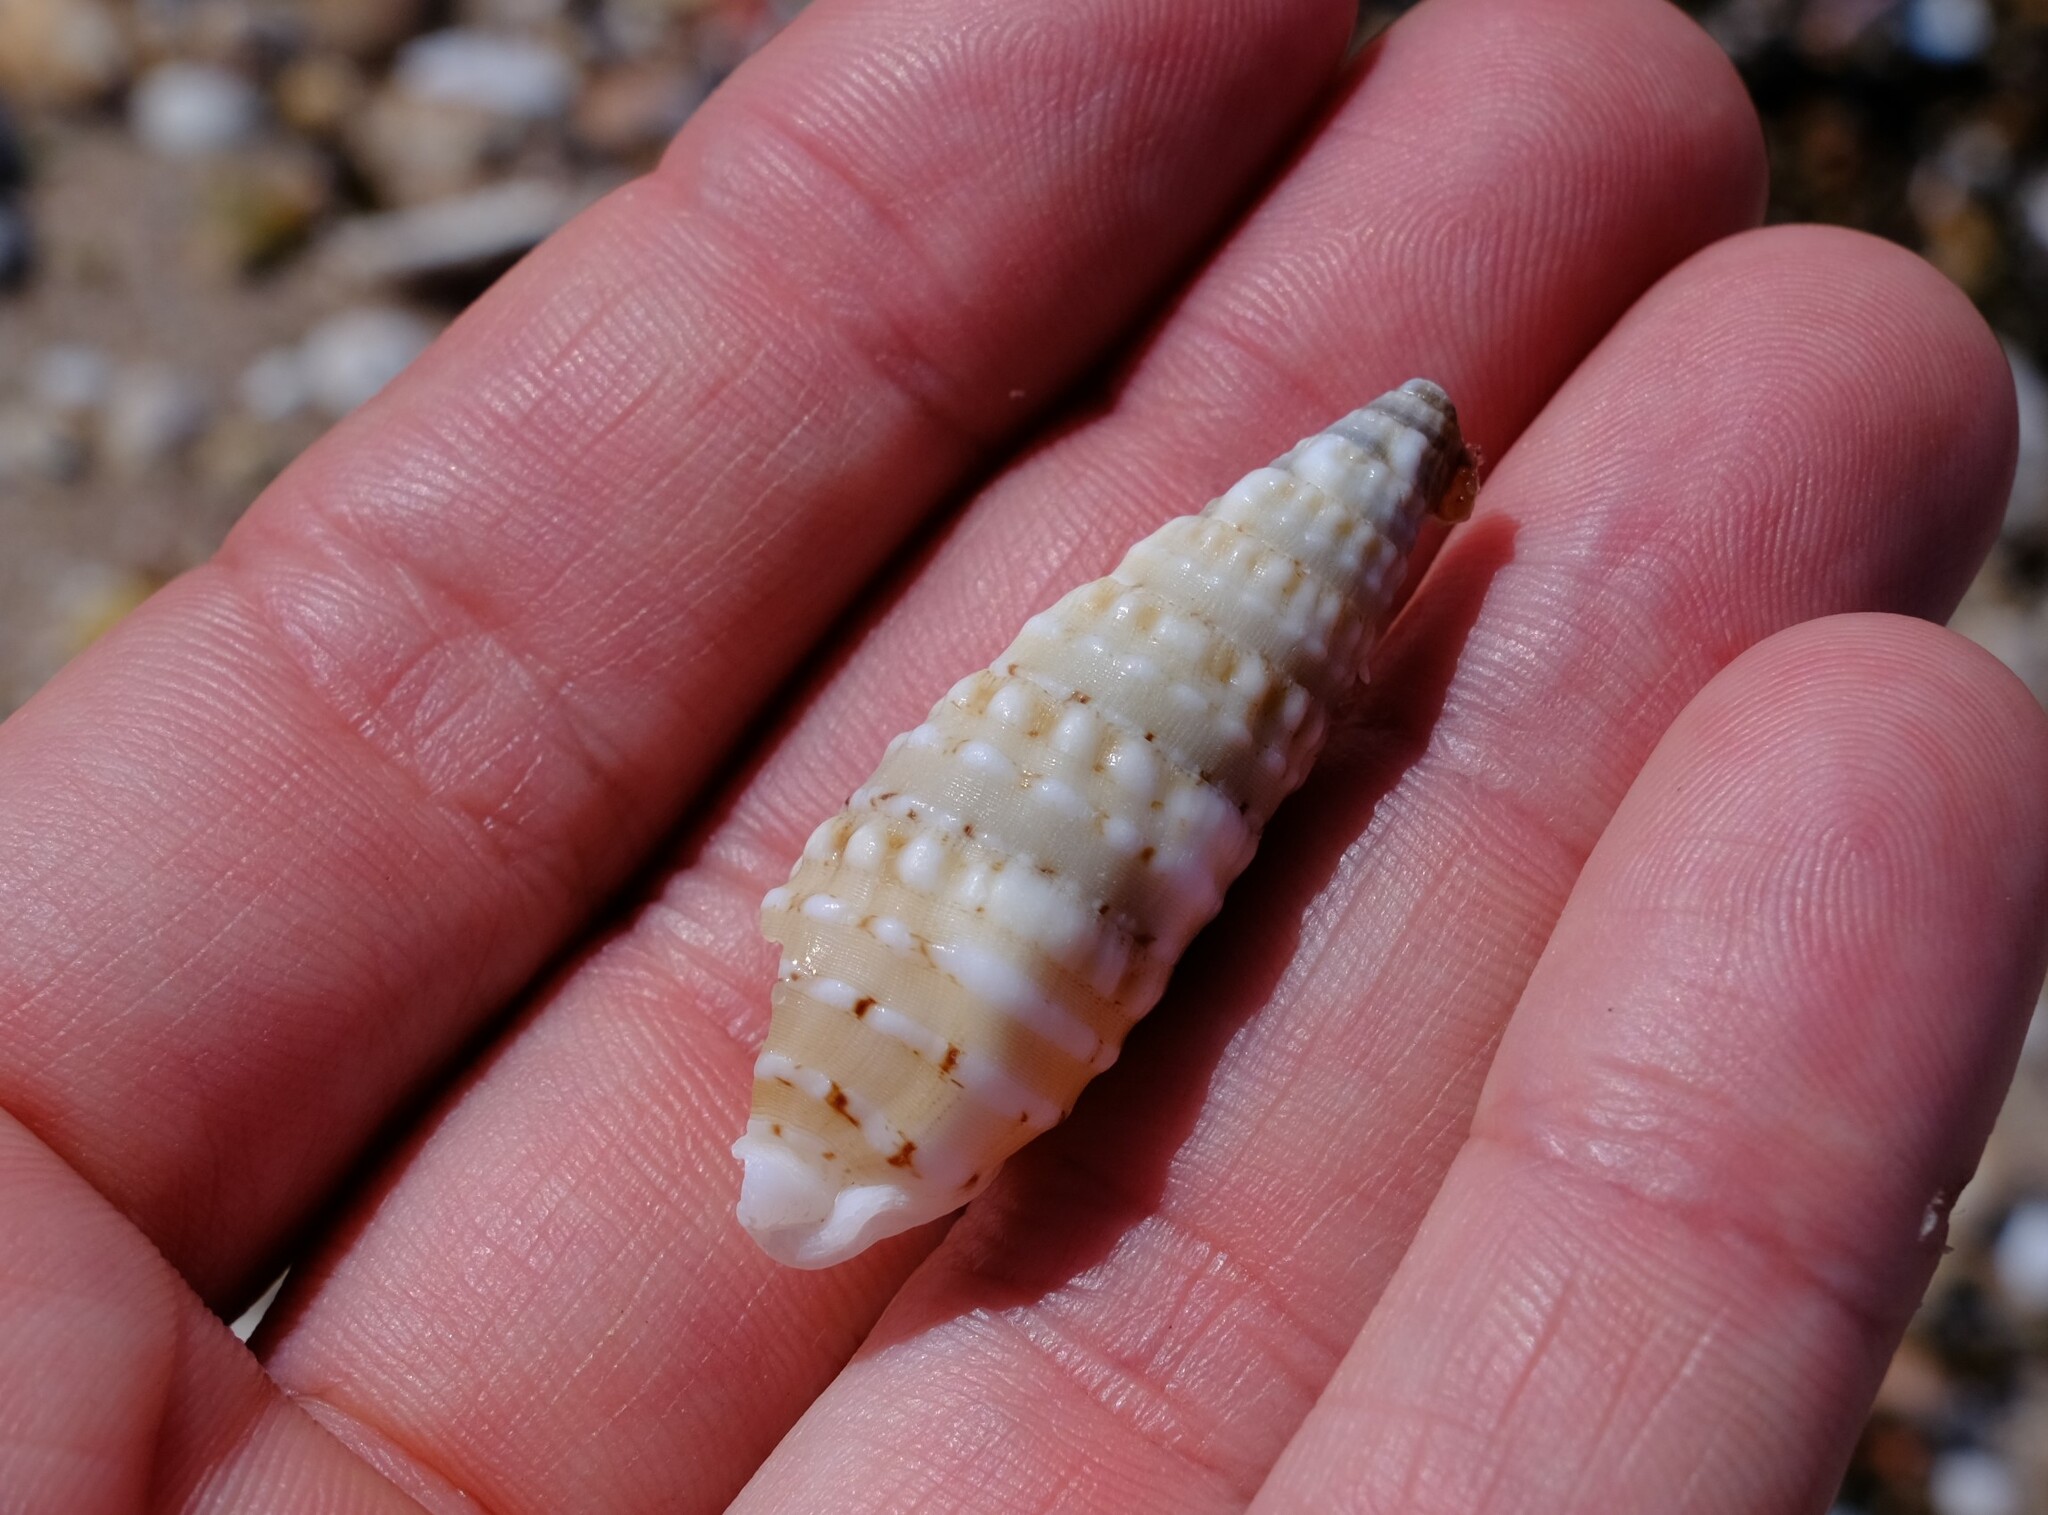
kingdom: Animalia
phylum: Mollusca
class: Gastropoda
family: Cerithiidae
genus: Rhinoclavis
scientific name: Rhinoclavis bituberculata
